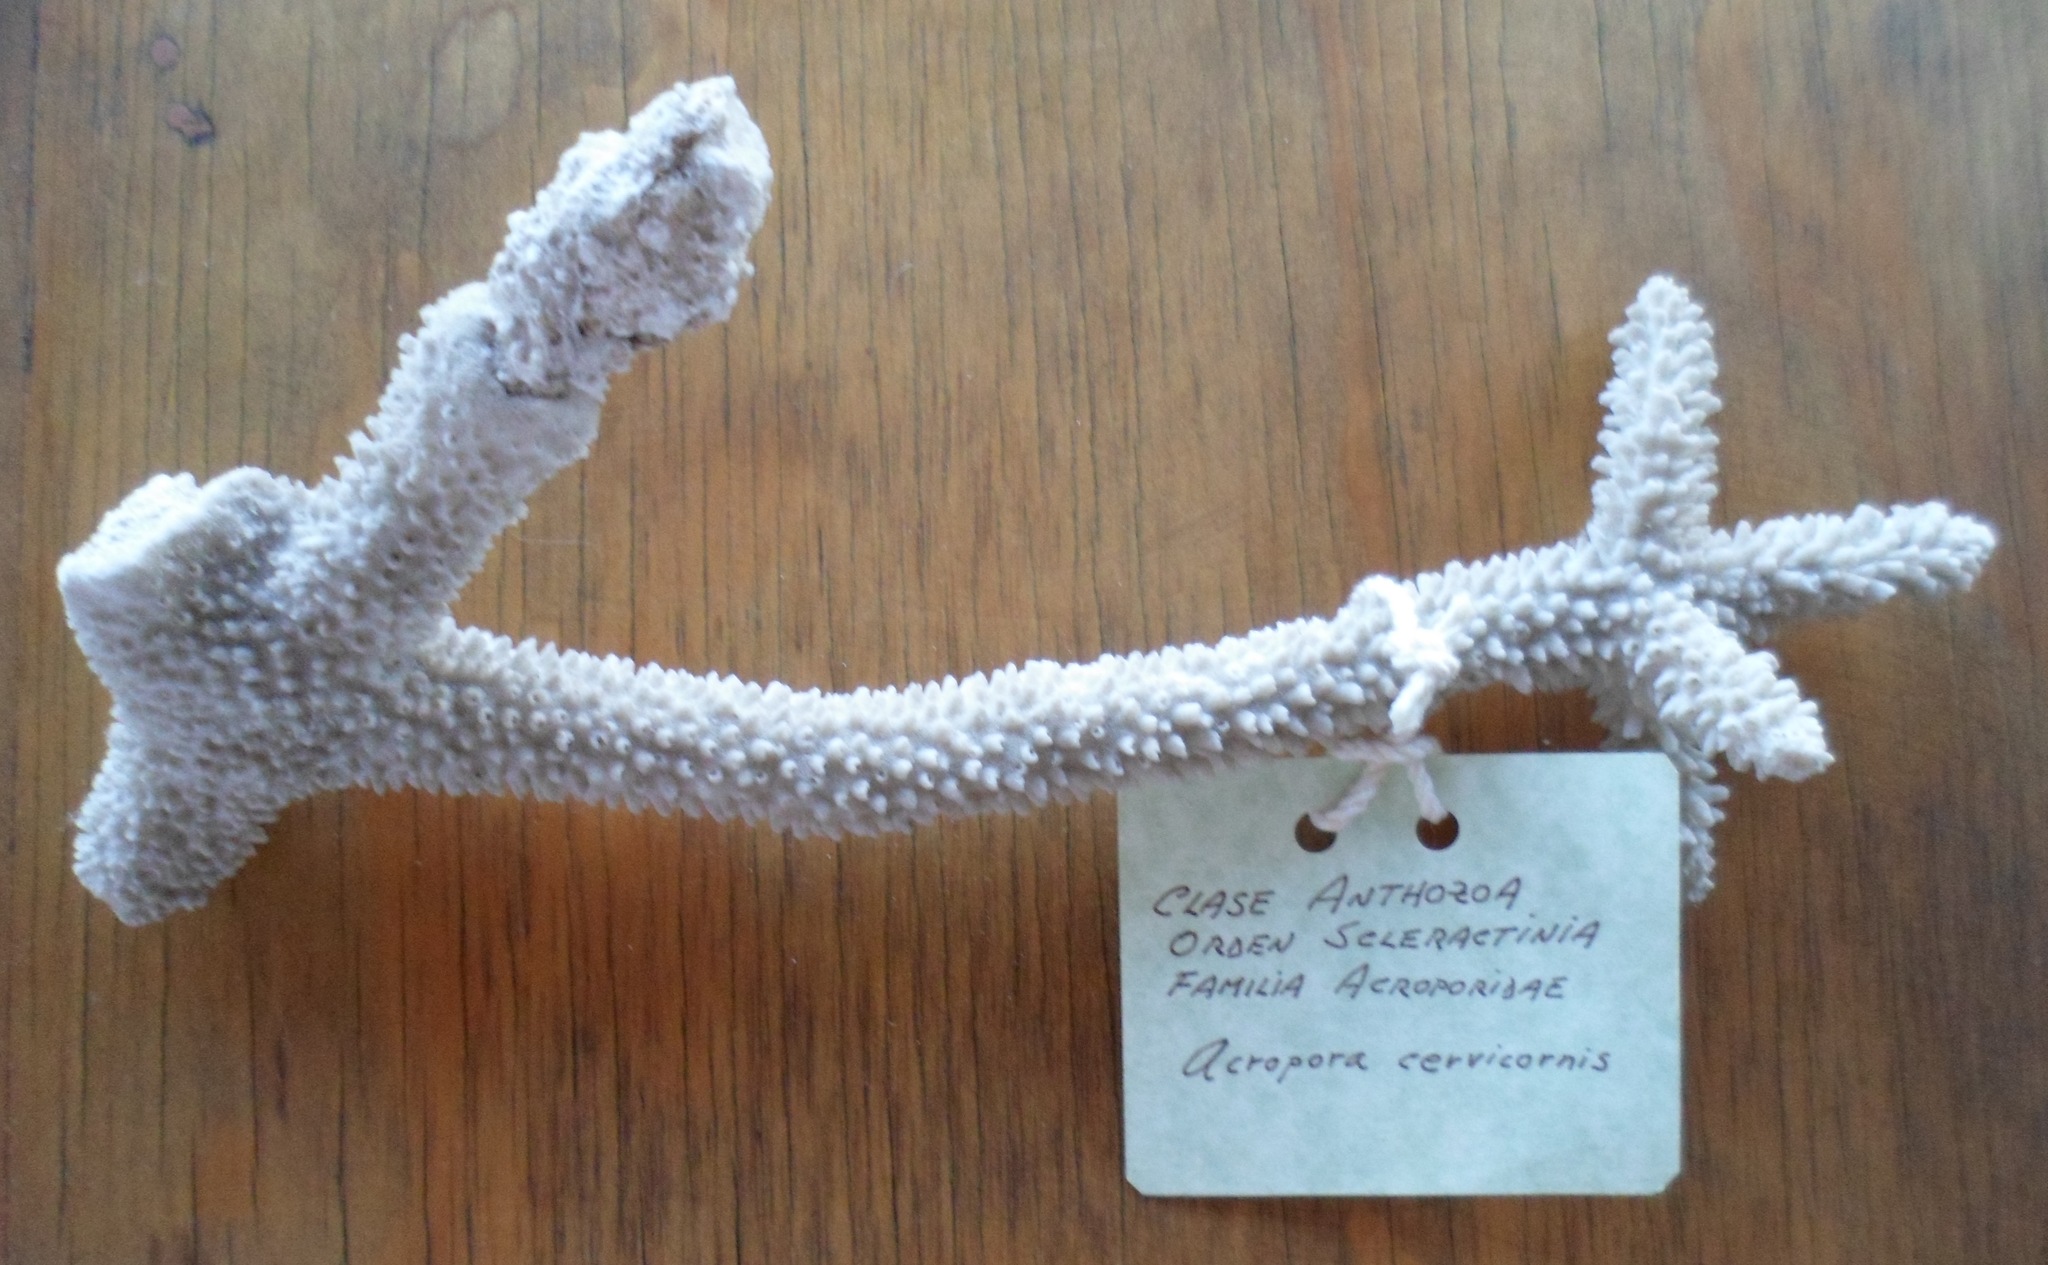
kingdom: Animalia
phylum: Cnidaria
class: Anthozoa
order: Scleractinia
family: Acroporidae
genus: Acropora
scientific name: Acropora cervicornis
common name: Staghorn coral
